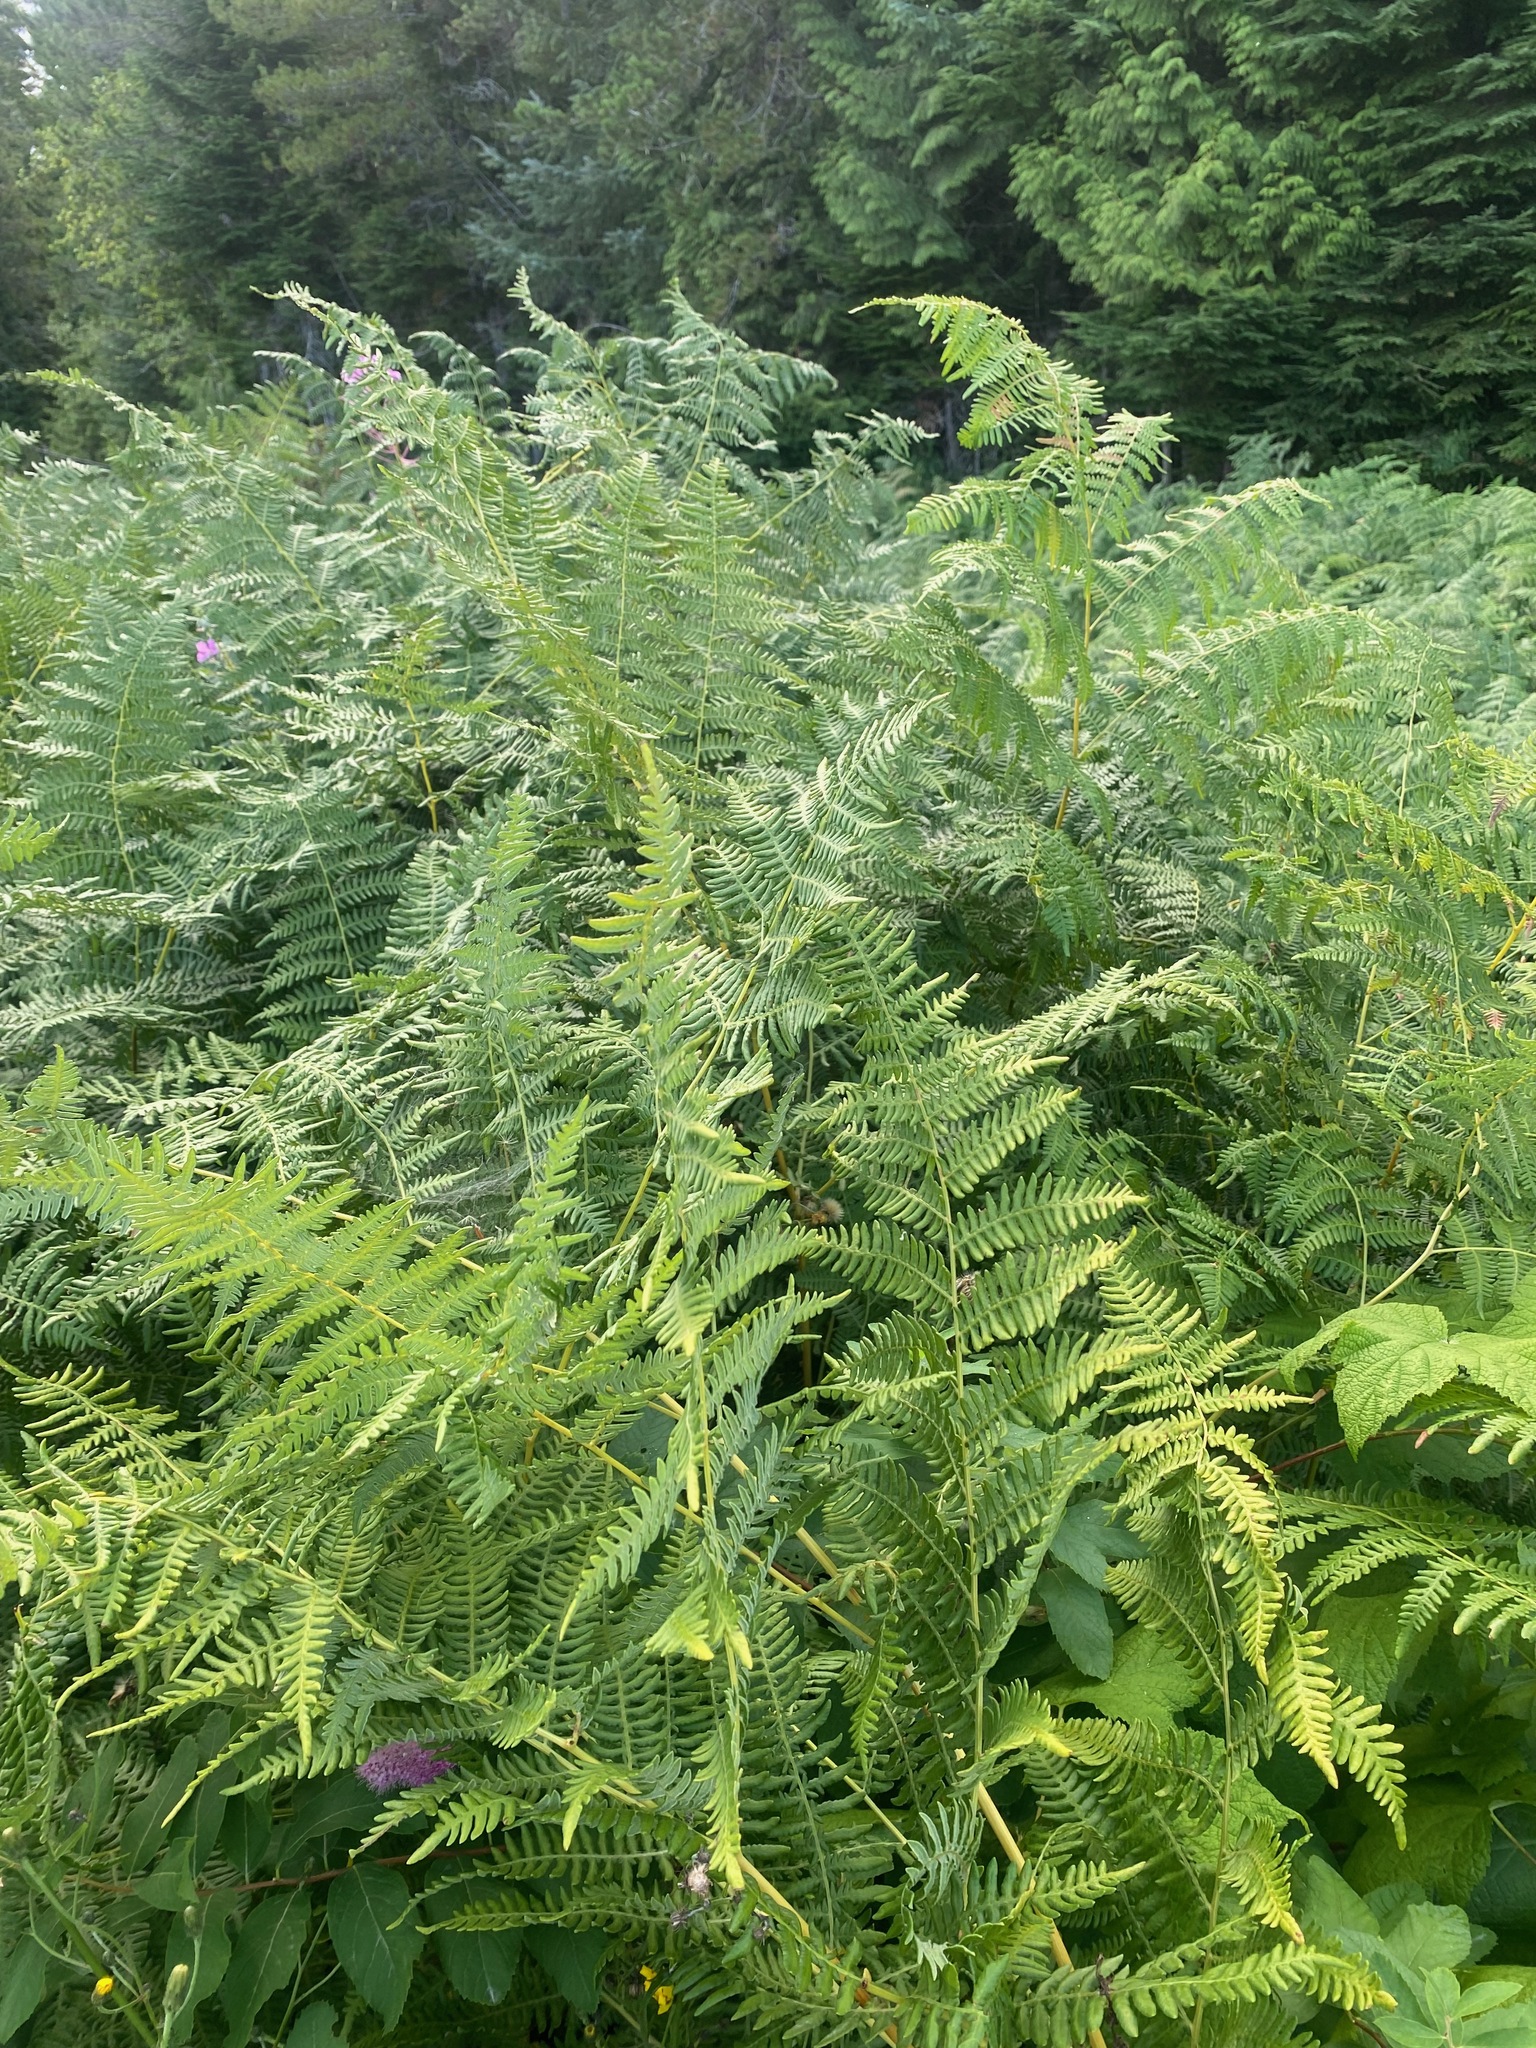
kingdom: Plantae
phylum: Tracheophyta
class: Polypodiopsida
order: Polypodiales
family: Dennstaedtiaceae
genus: Pteridium
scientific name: Pteridium aquilinum
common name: Bracken
